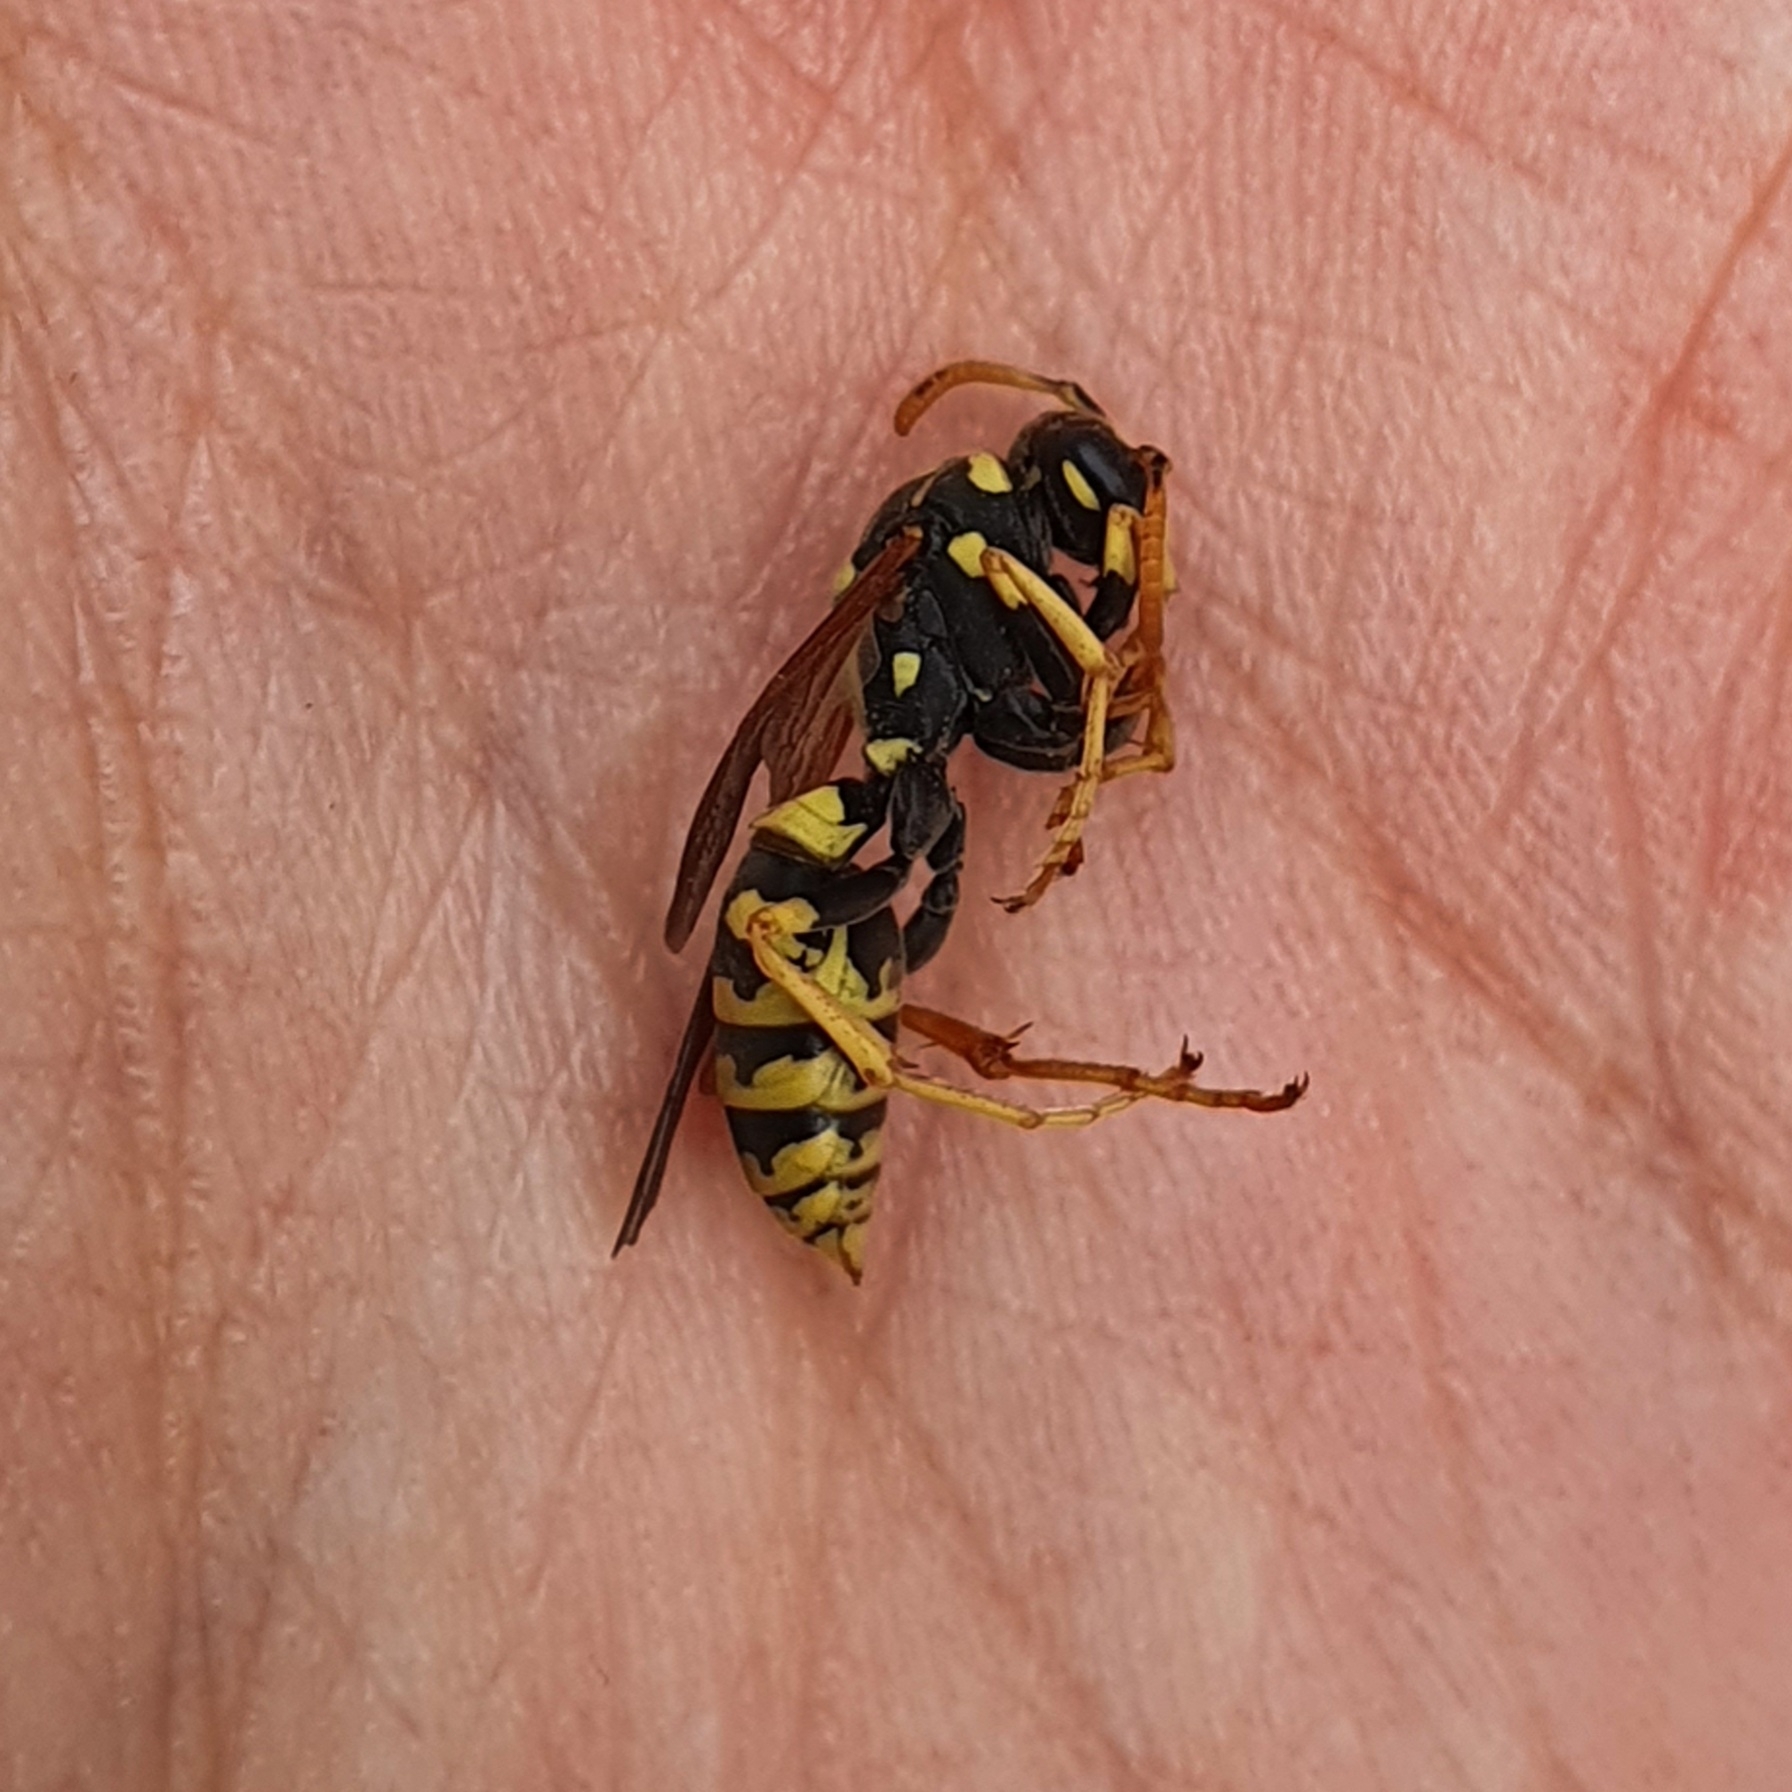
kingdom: Animalia
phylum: Arthropoda
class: Insecta
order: Hymenoptera
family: Eumenidae
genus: Polistes
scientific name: Polistes dominula
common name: Paper wasp
